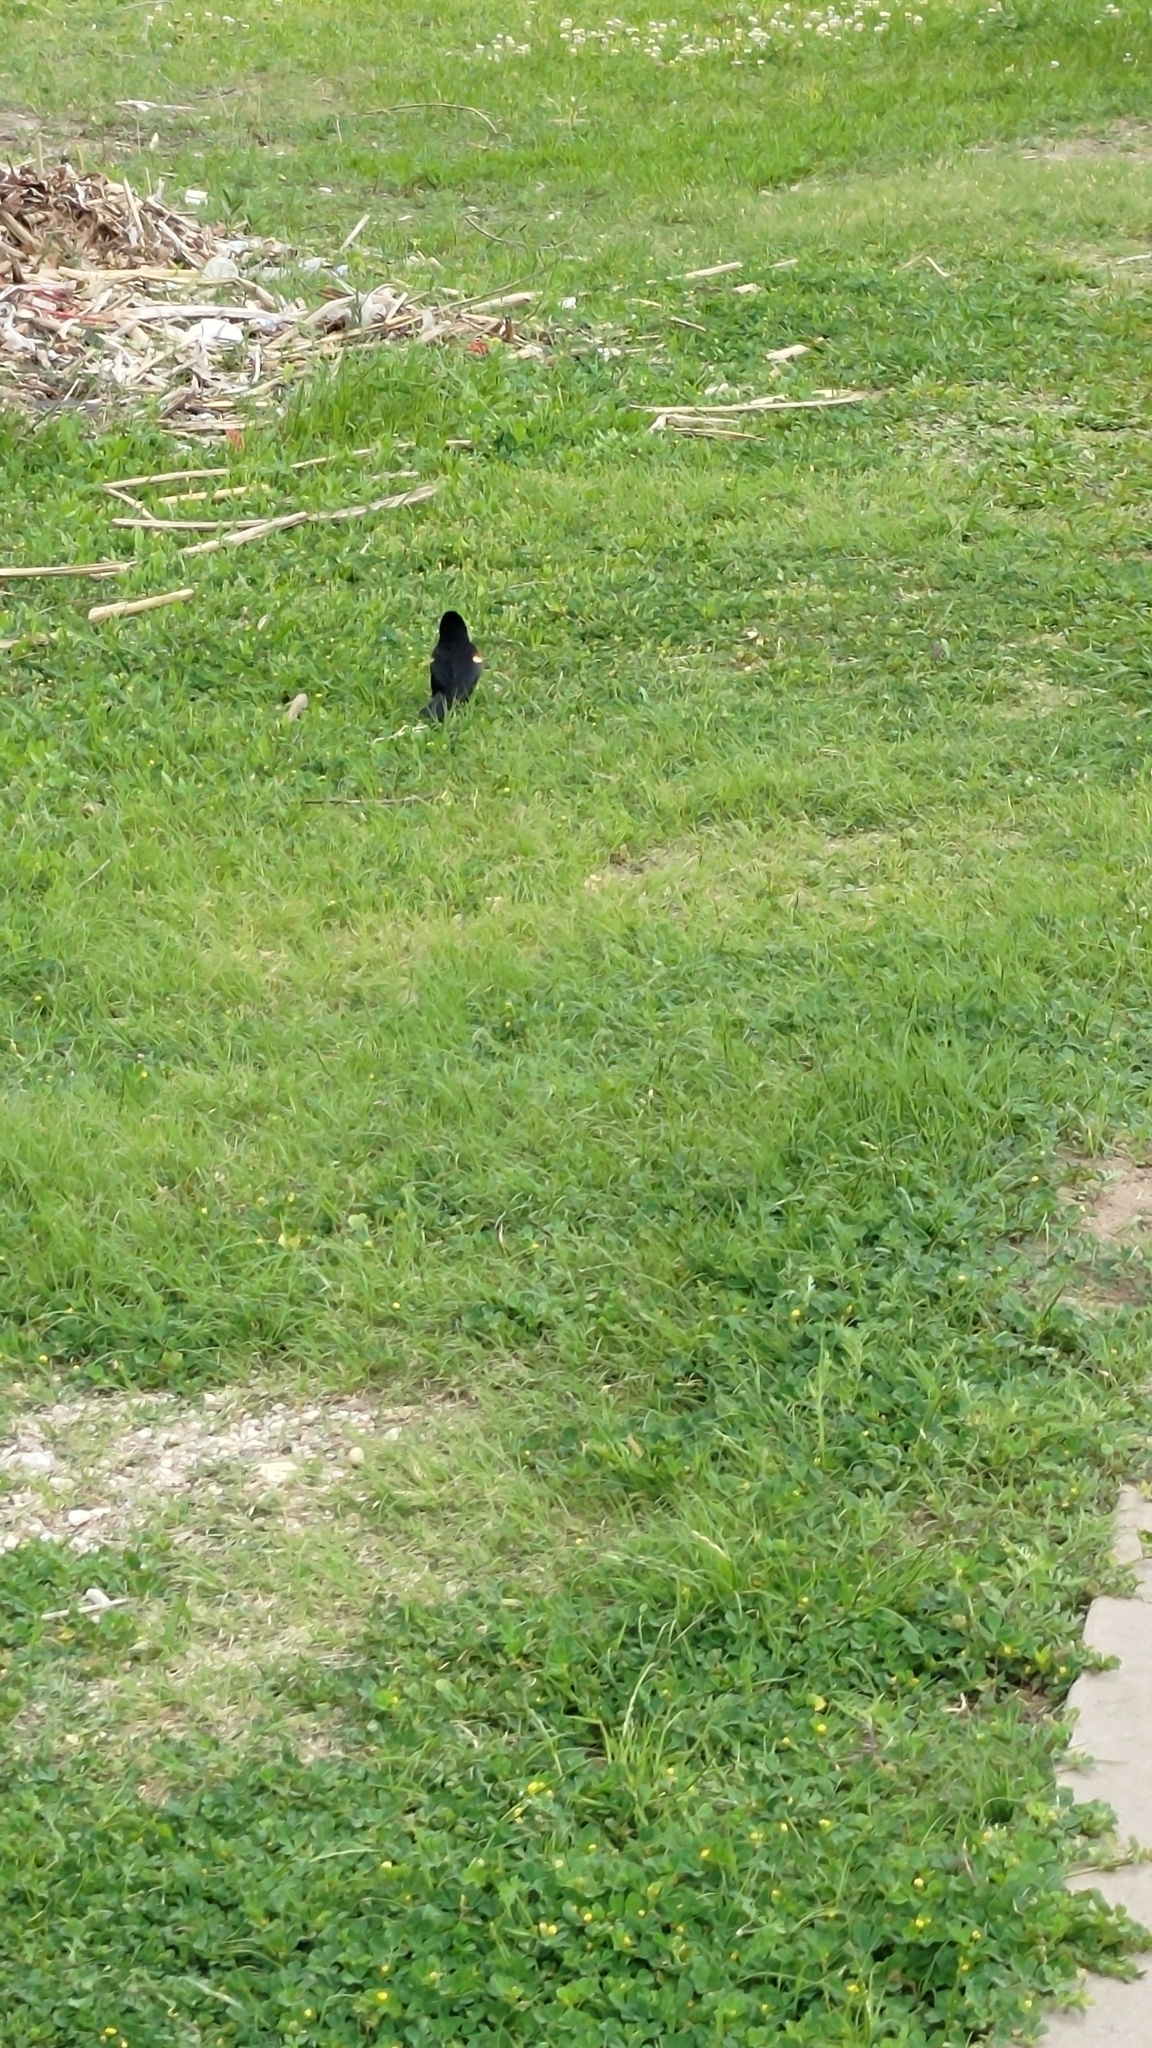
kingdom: Animalia
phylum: Chordata
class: Aves
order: Passeriformes
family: Icteridae
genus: Agelaius
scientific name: Agelaius phoeniceus
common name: Red-winged blackbird
